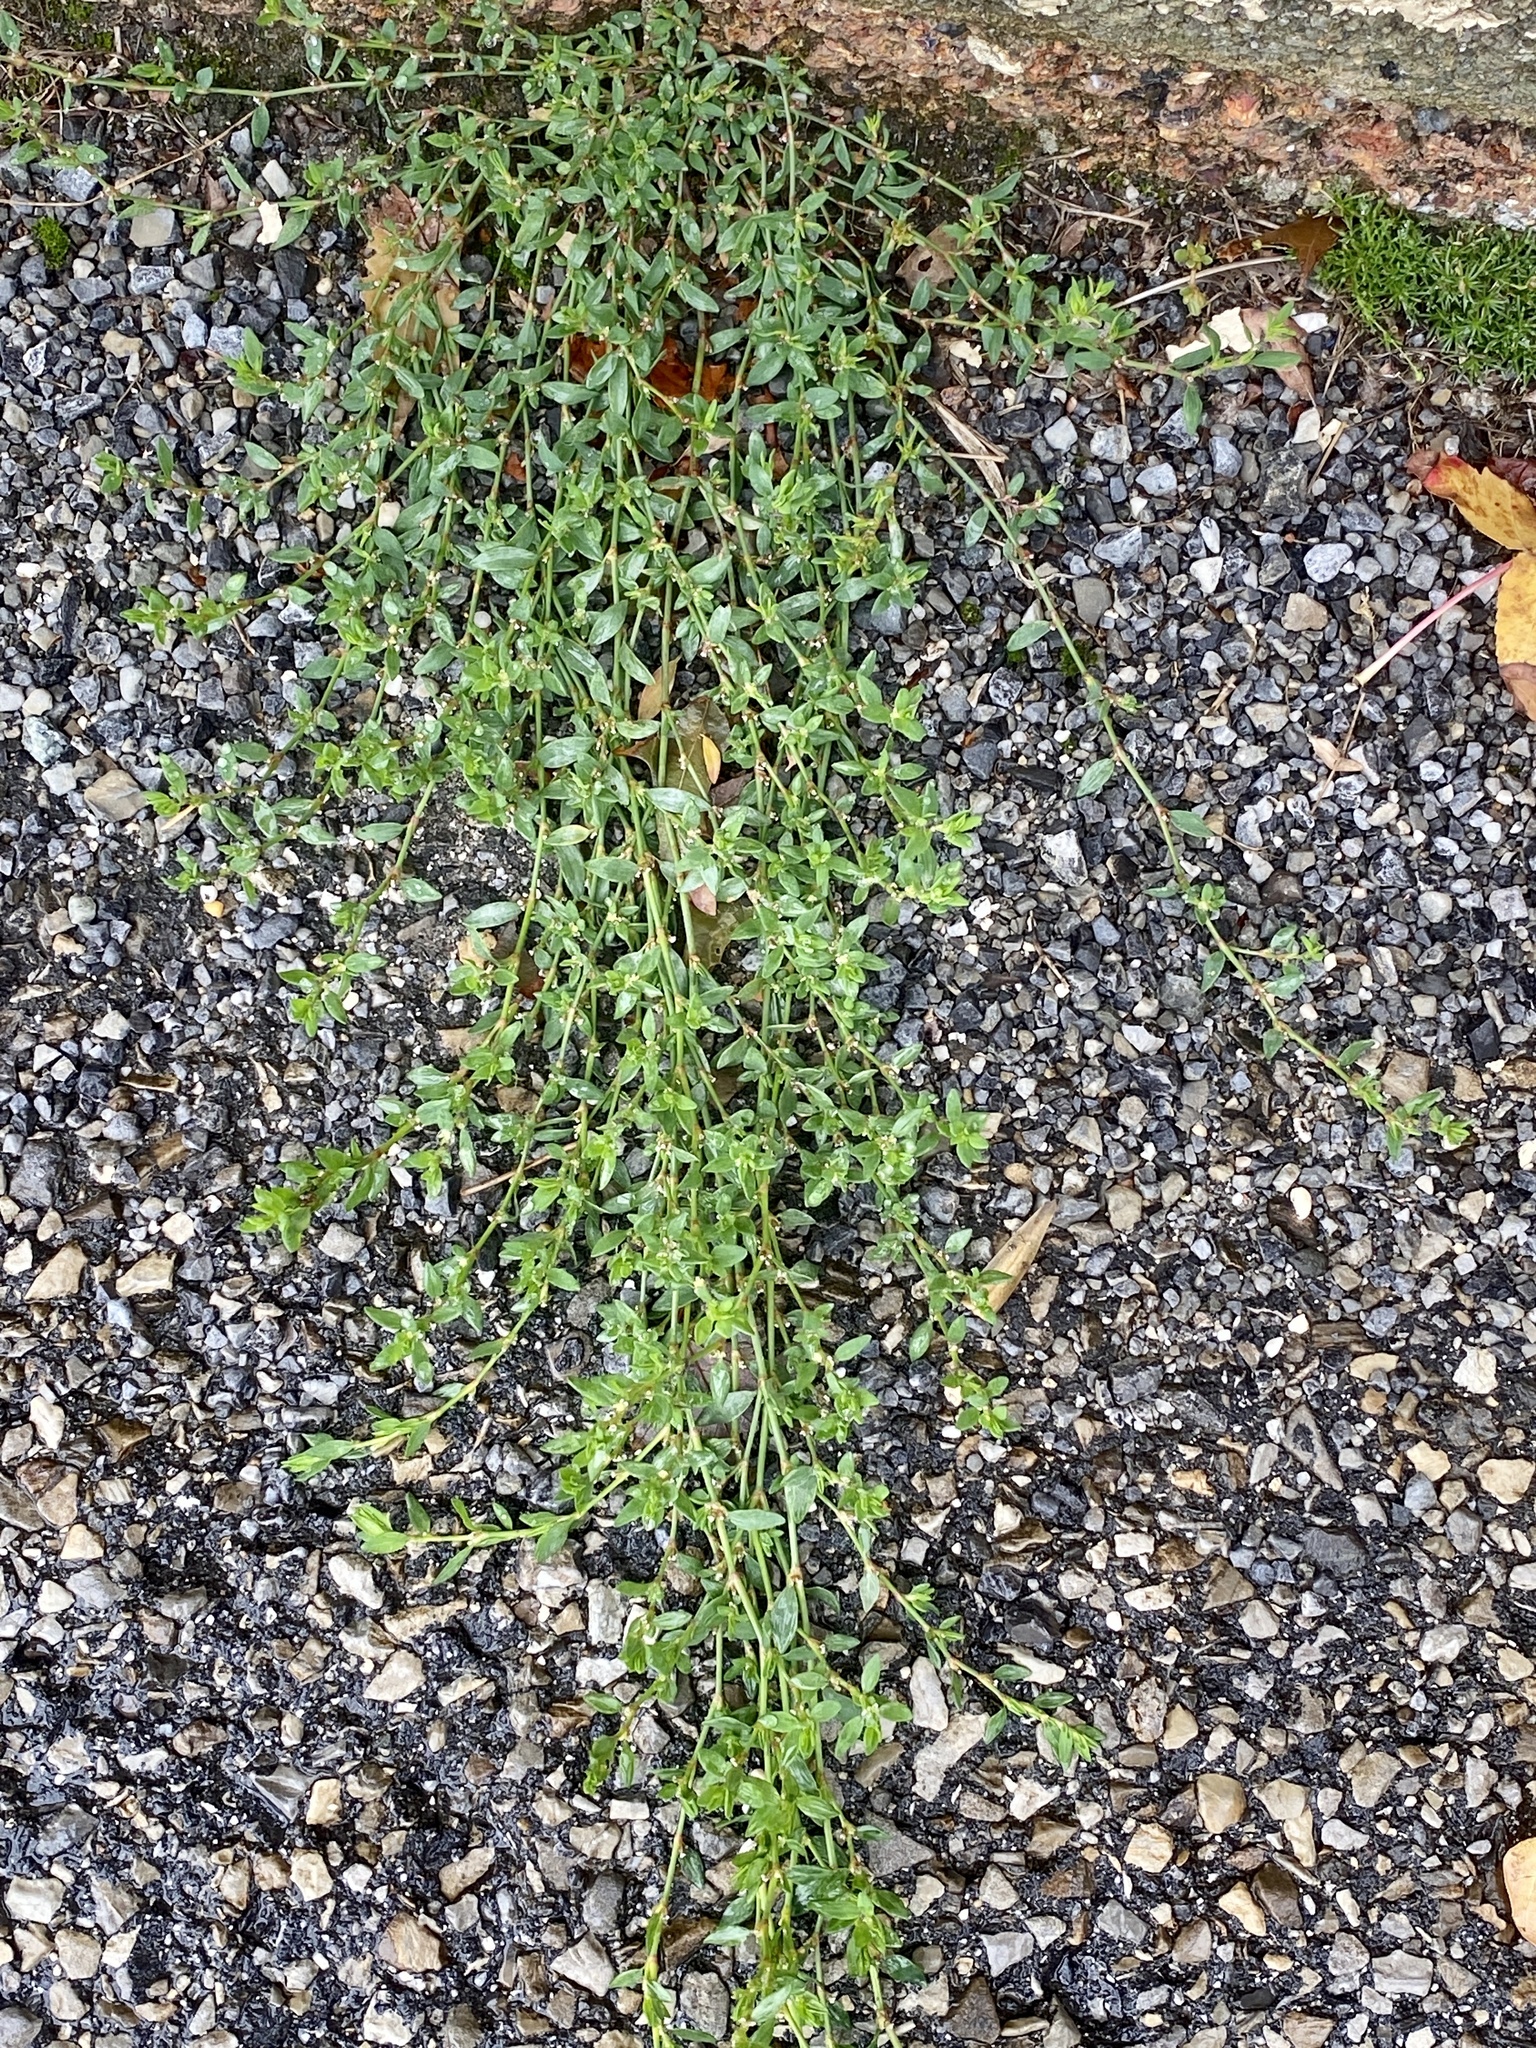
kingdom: Plantae
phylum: Tracheophyta
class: Magnoliopsida
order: Caryophyllales
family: Polygonaceae
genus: Polygonum
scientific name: Polygonum aviculare
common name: Prostrate knotweed
